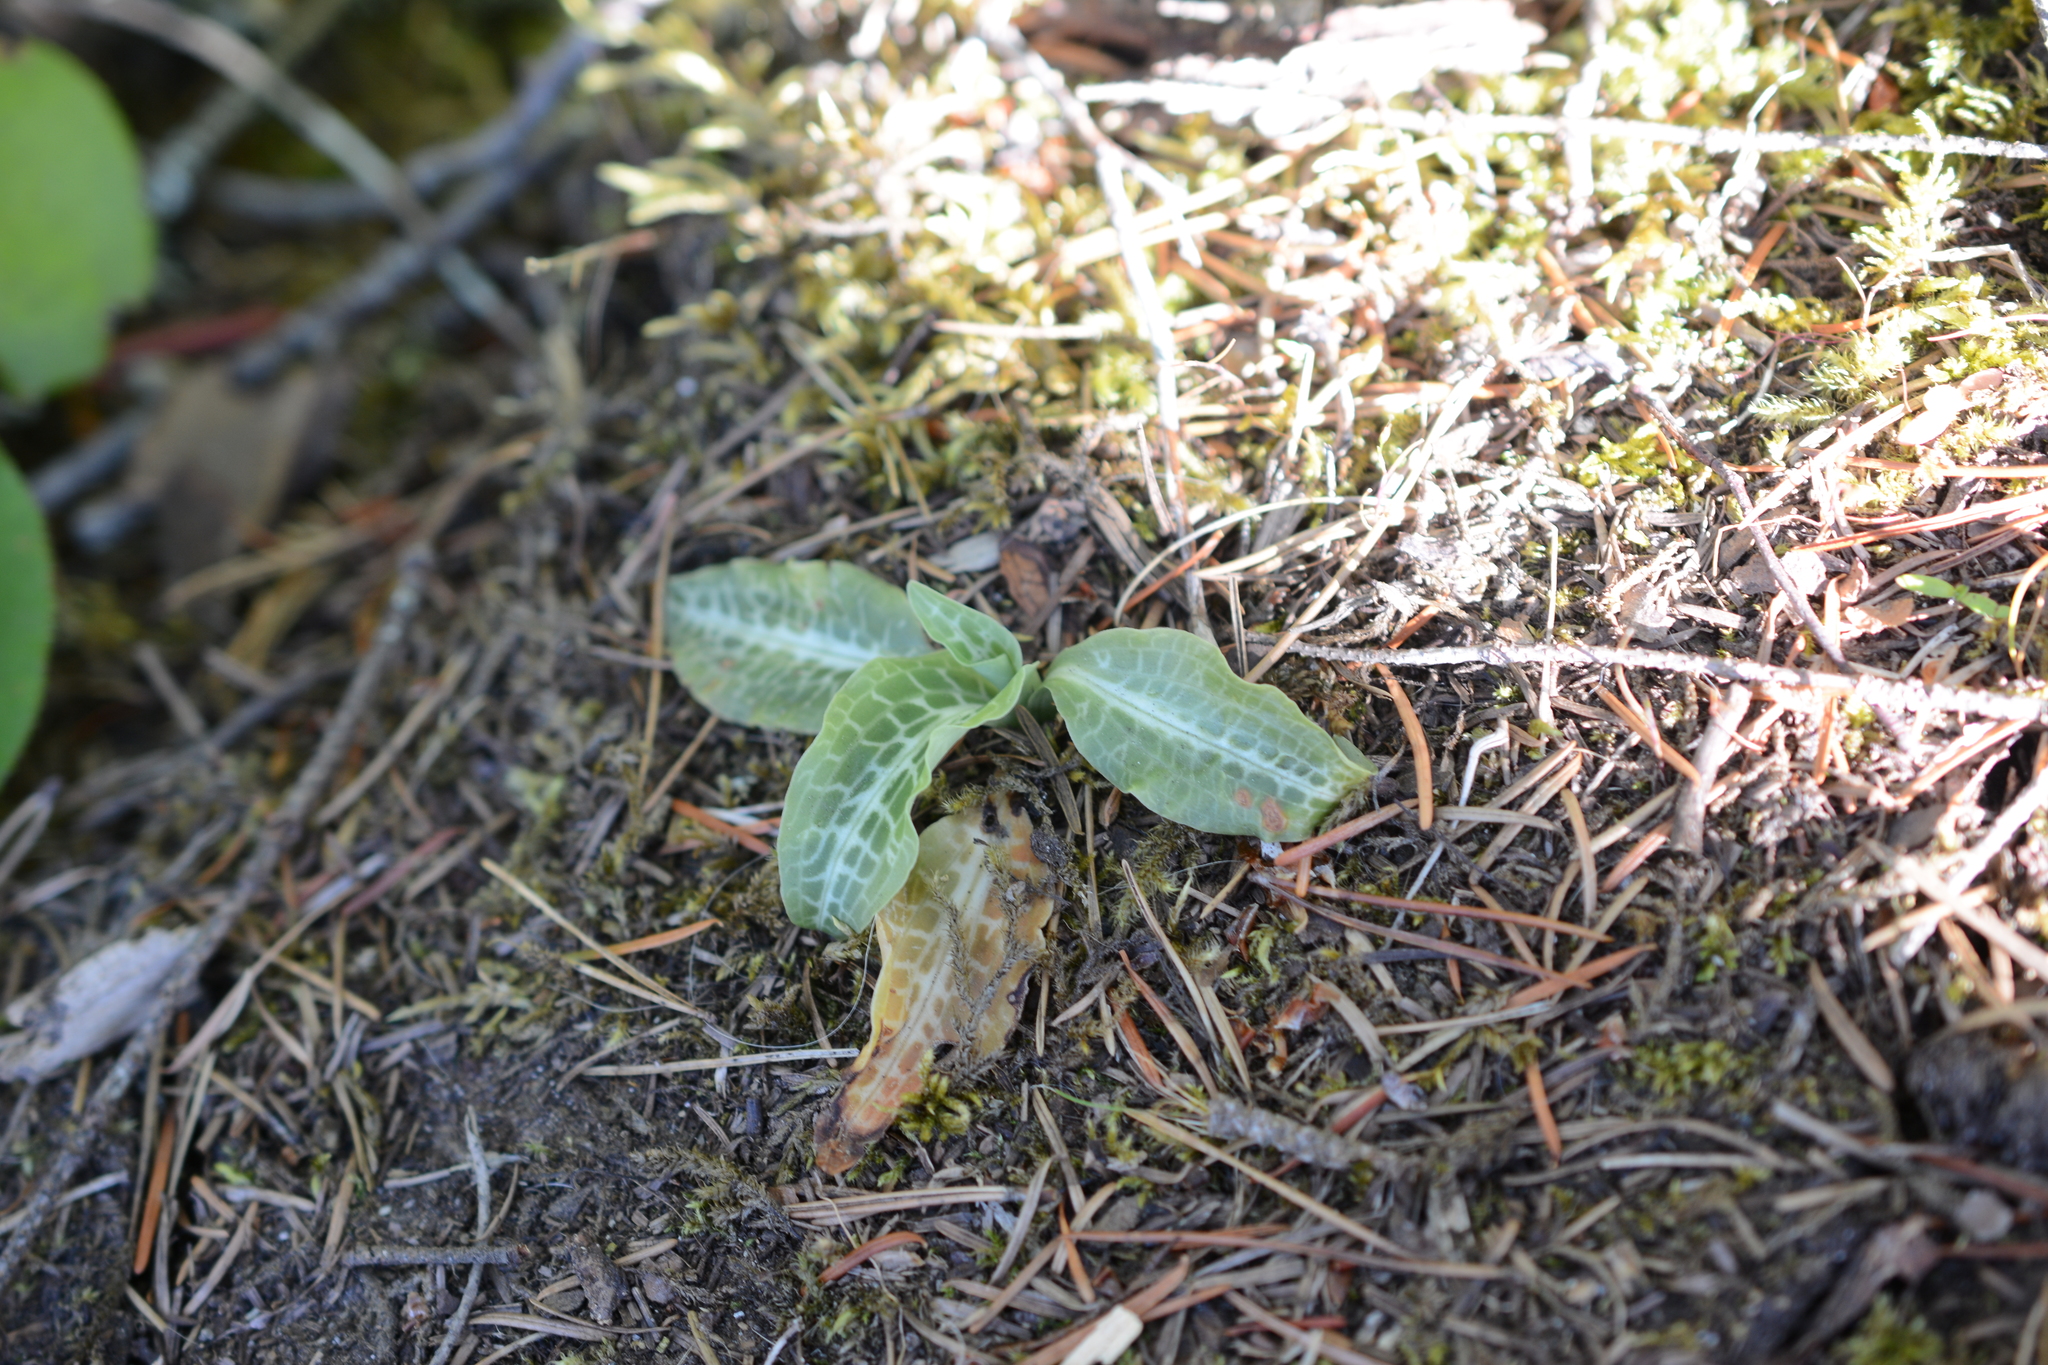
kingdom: Plantae
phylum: Tracheophyta
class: Liliopsida
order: Asparagales
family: Orchidaceae
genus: Goodyera
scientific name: Goodyera oblongifolia
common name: Giant rattlesnake-plantain
